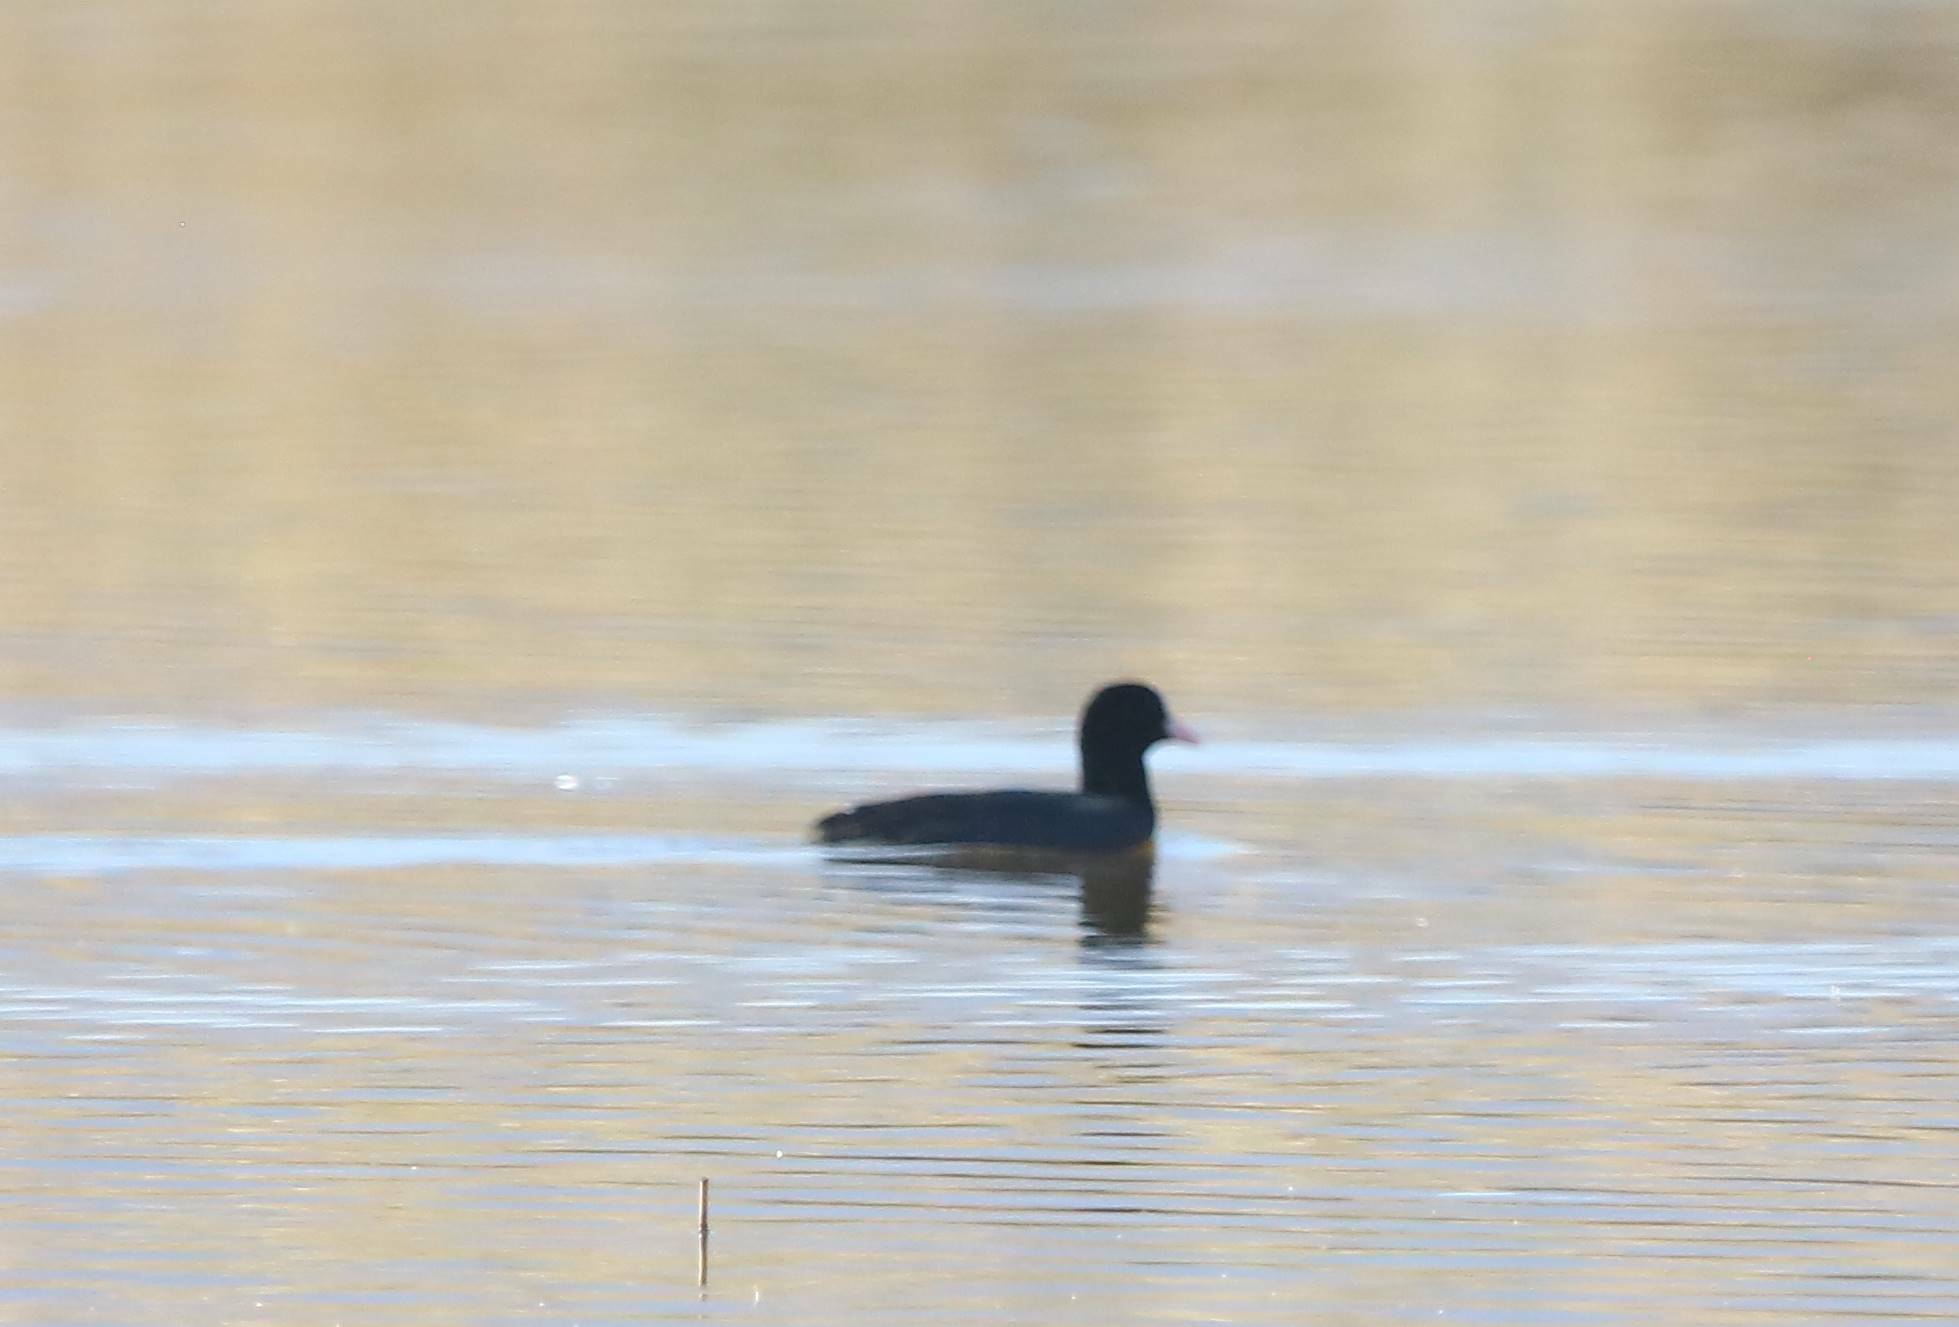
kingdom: Animalia
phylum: Chordata
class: Aves
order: Gruiformes
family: Rallidae
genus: Fulica
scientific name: Fulica atra
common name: Eurasian coot
